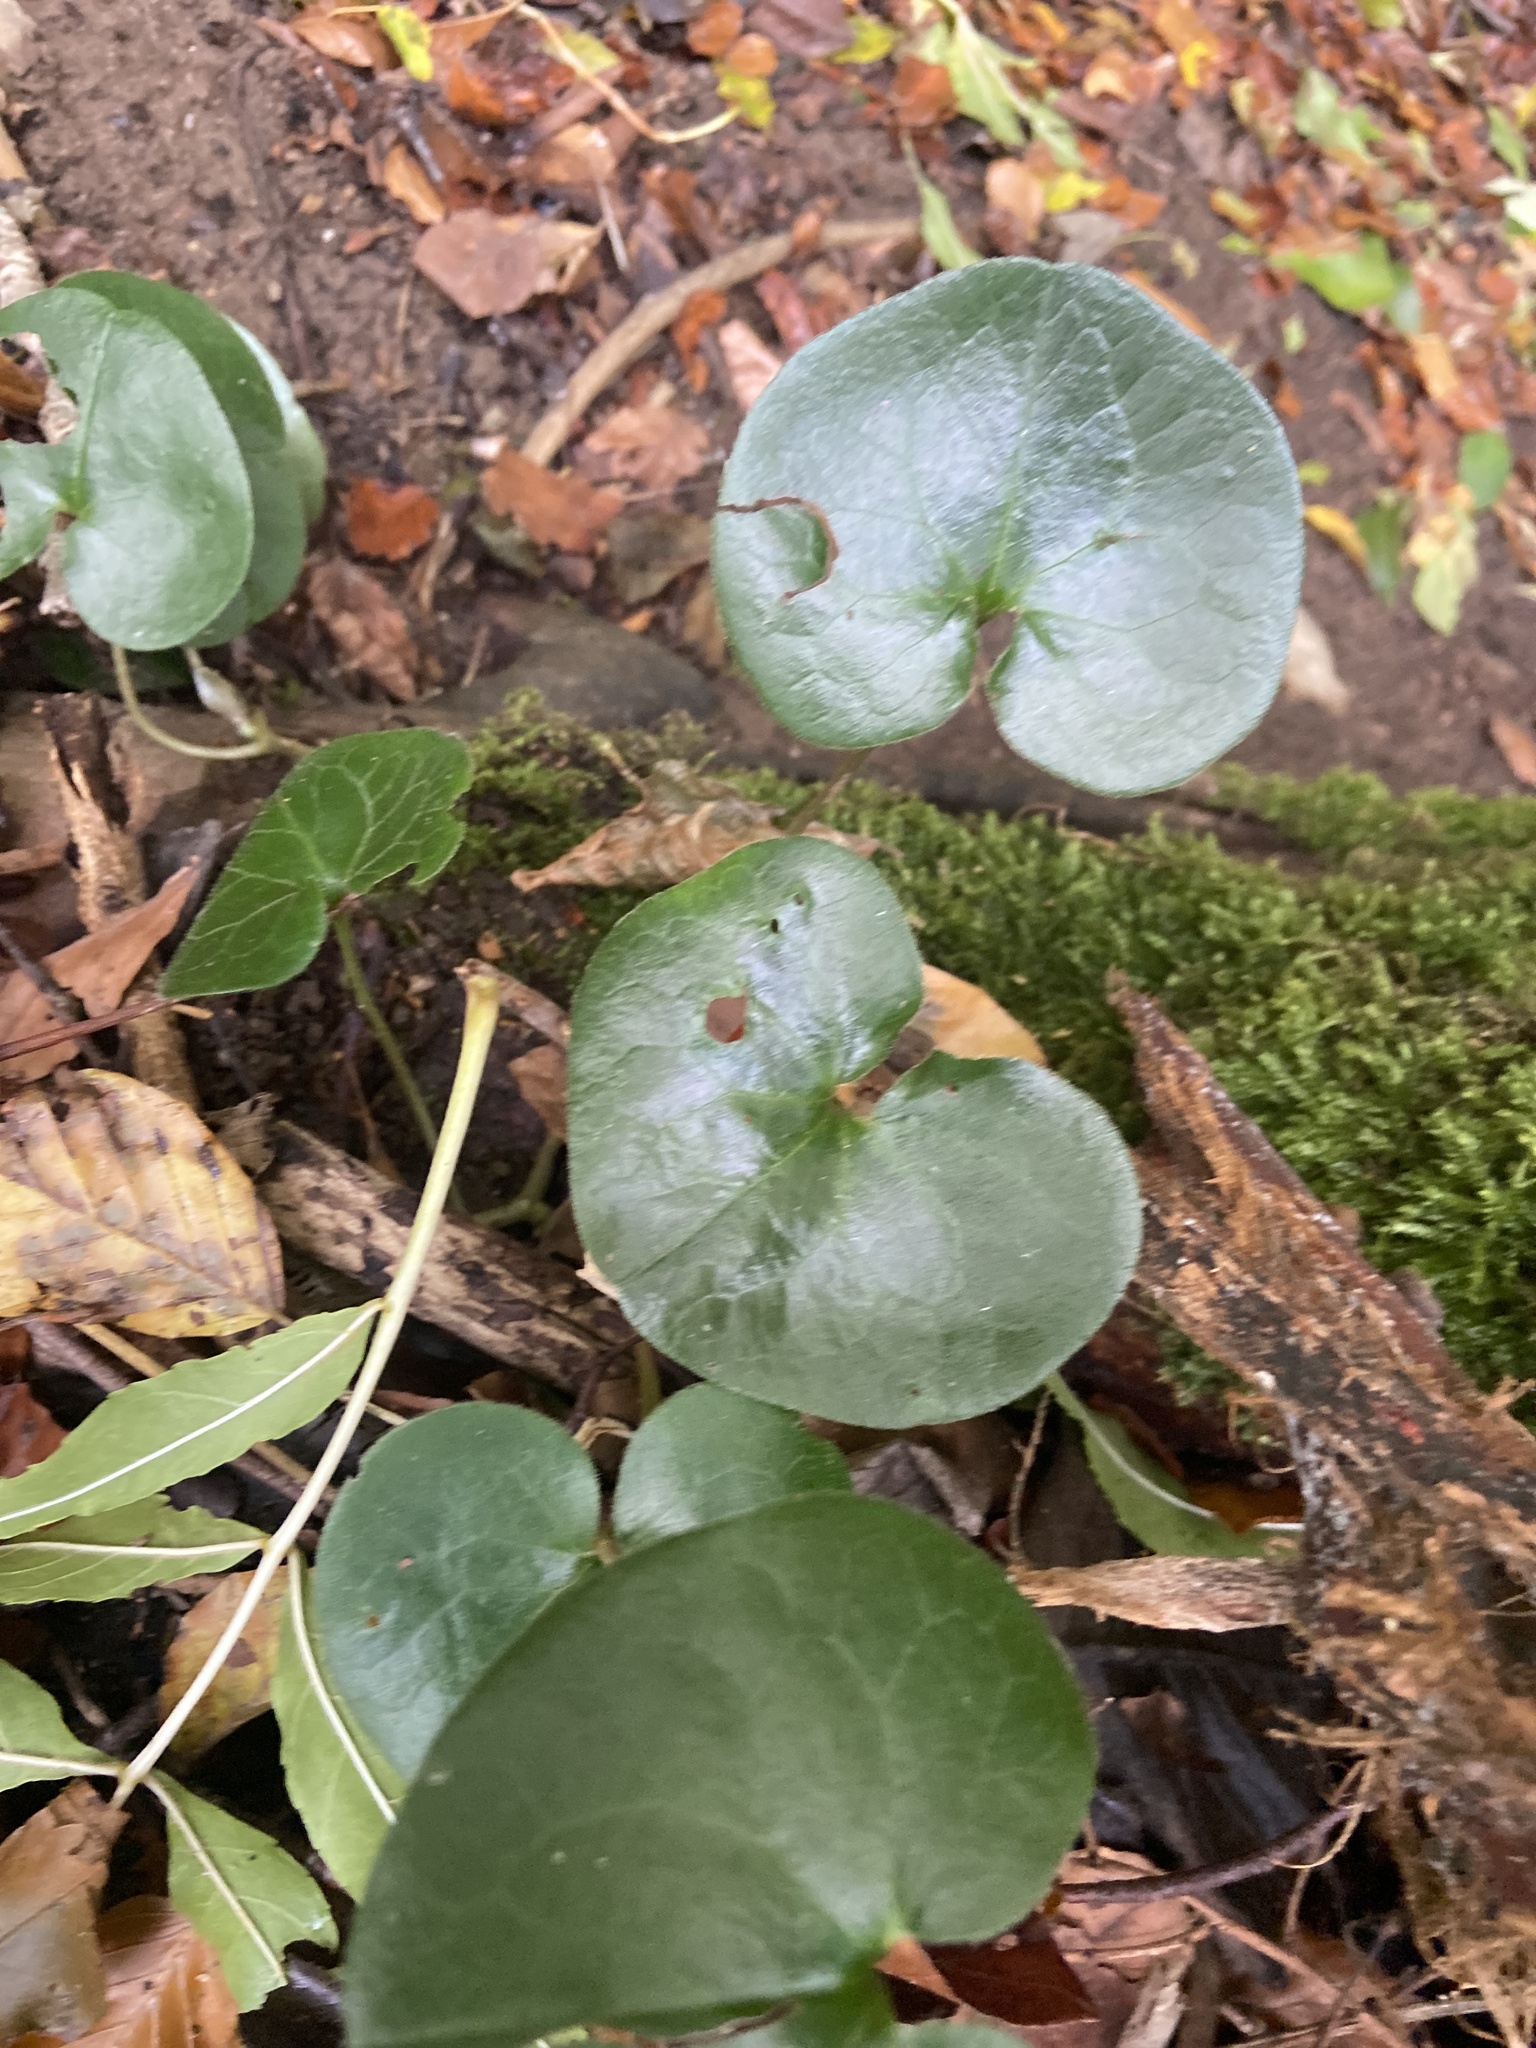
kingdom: Plantae
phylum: Tracheophyta
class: Magnoliopsida
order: Piperales
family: Aristolochiaceae
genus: Asarum
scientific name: Asarum europaeum
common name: Asarabacca
